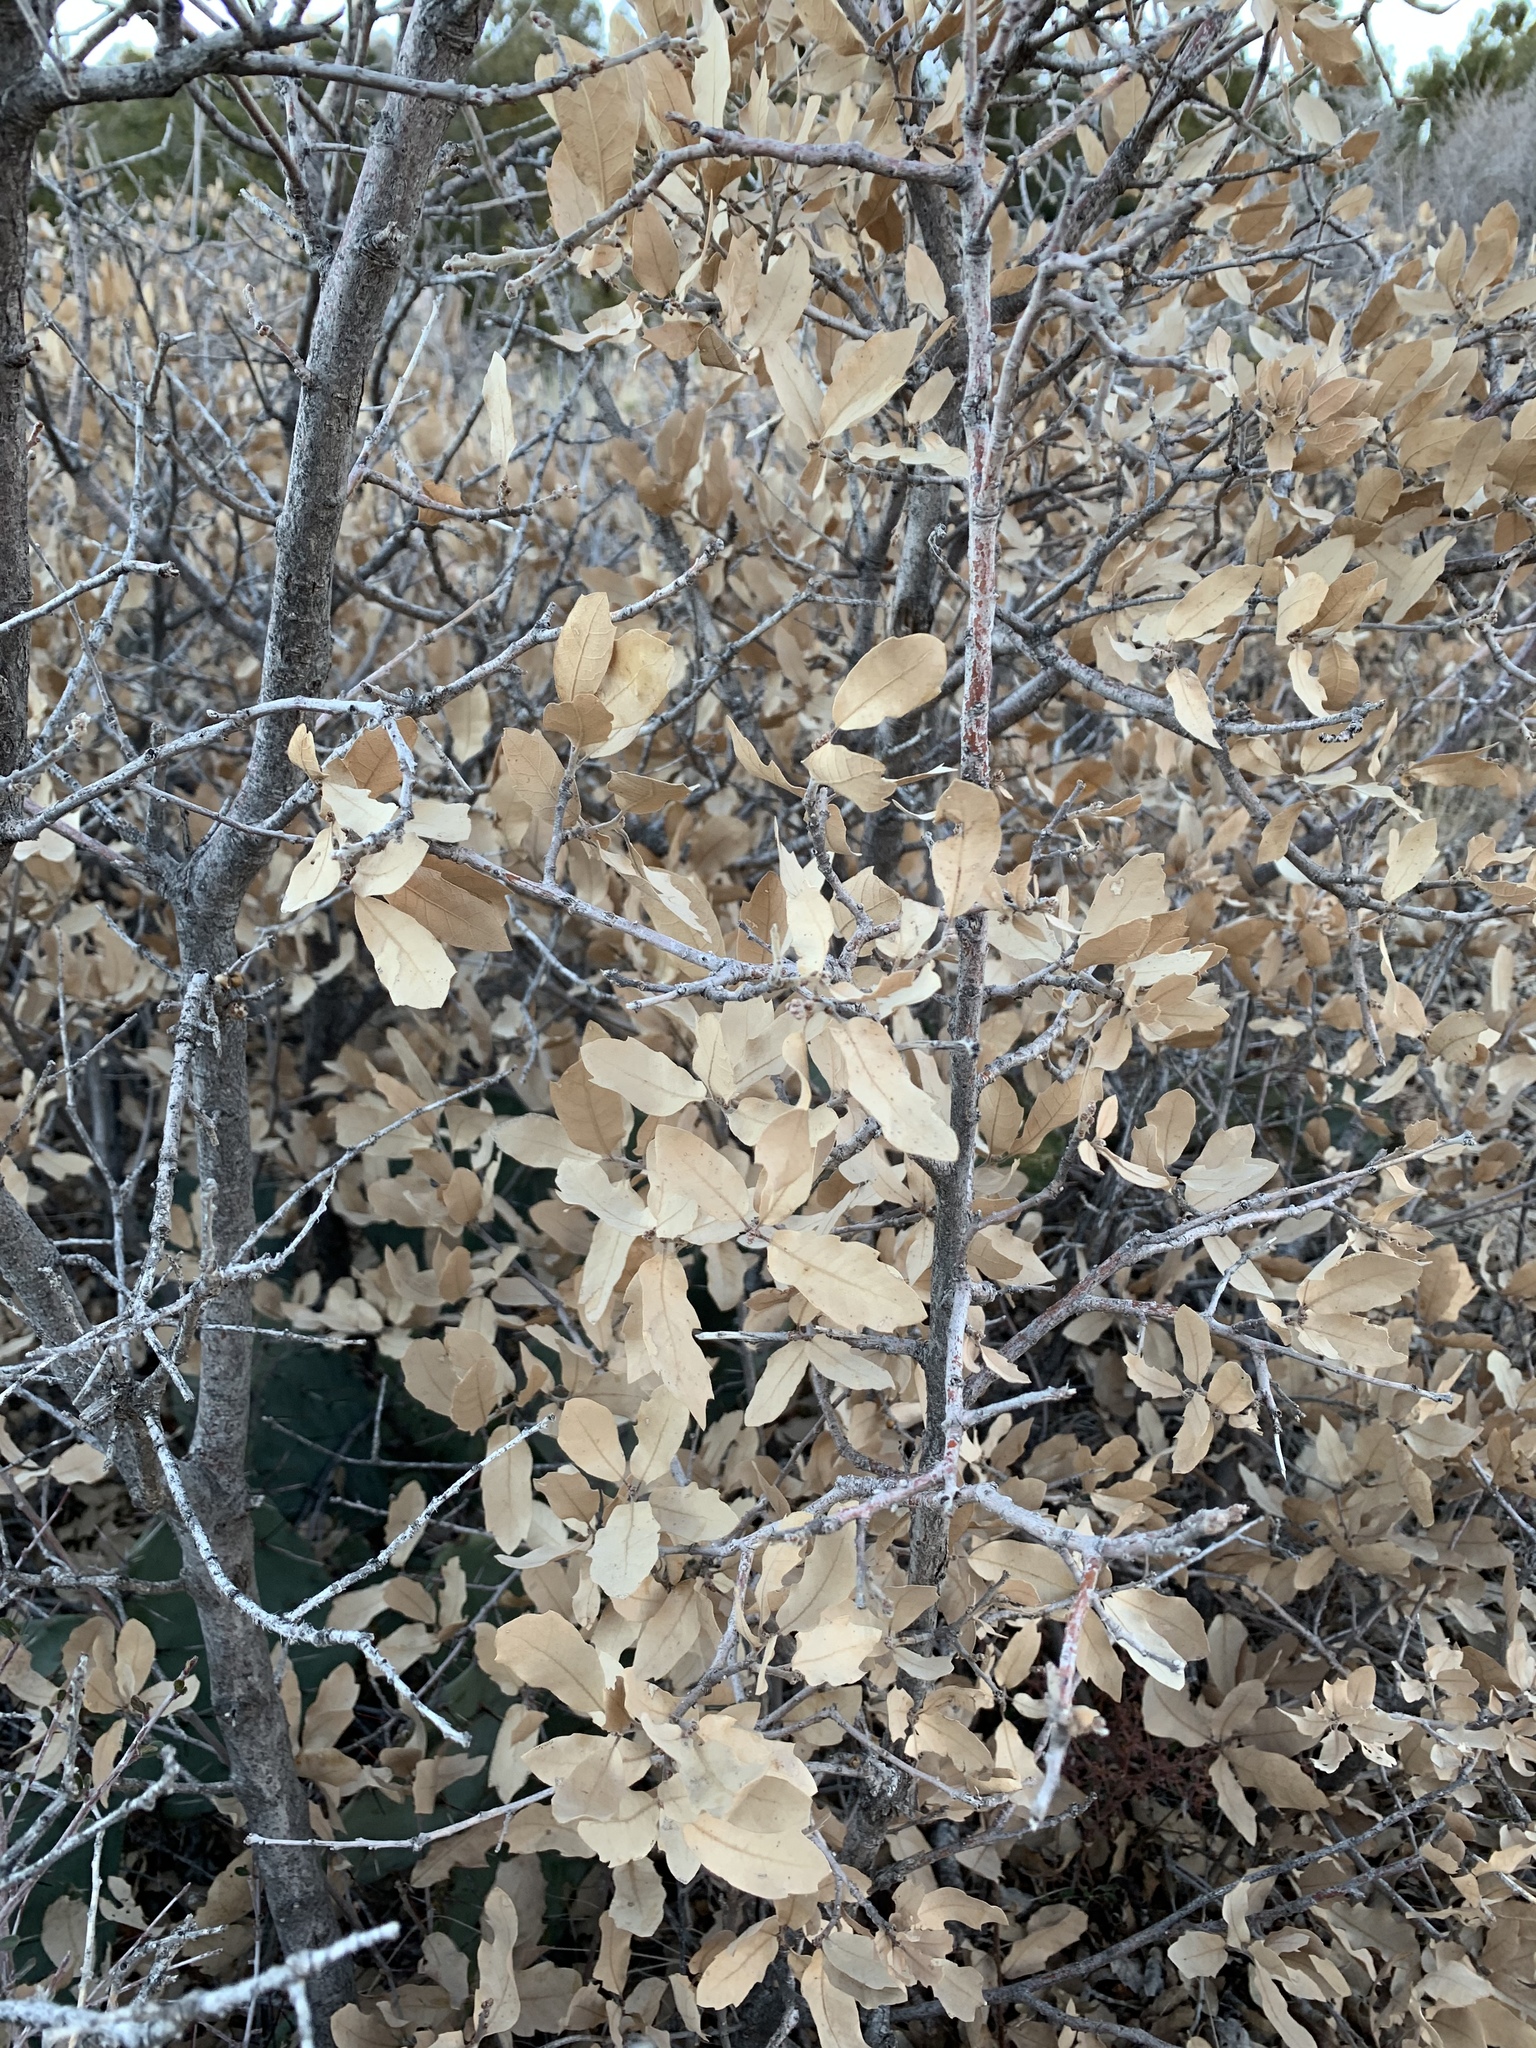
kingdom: Plantae
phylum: Tracheophyta
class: Magnoliopsida
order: Fagales
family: Fagaceae
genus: Quercus
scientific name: Quercus undulata
